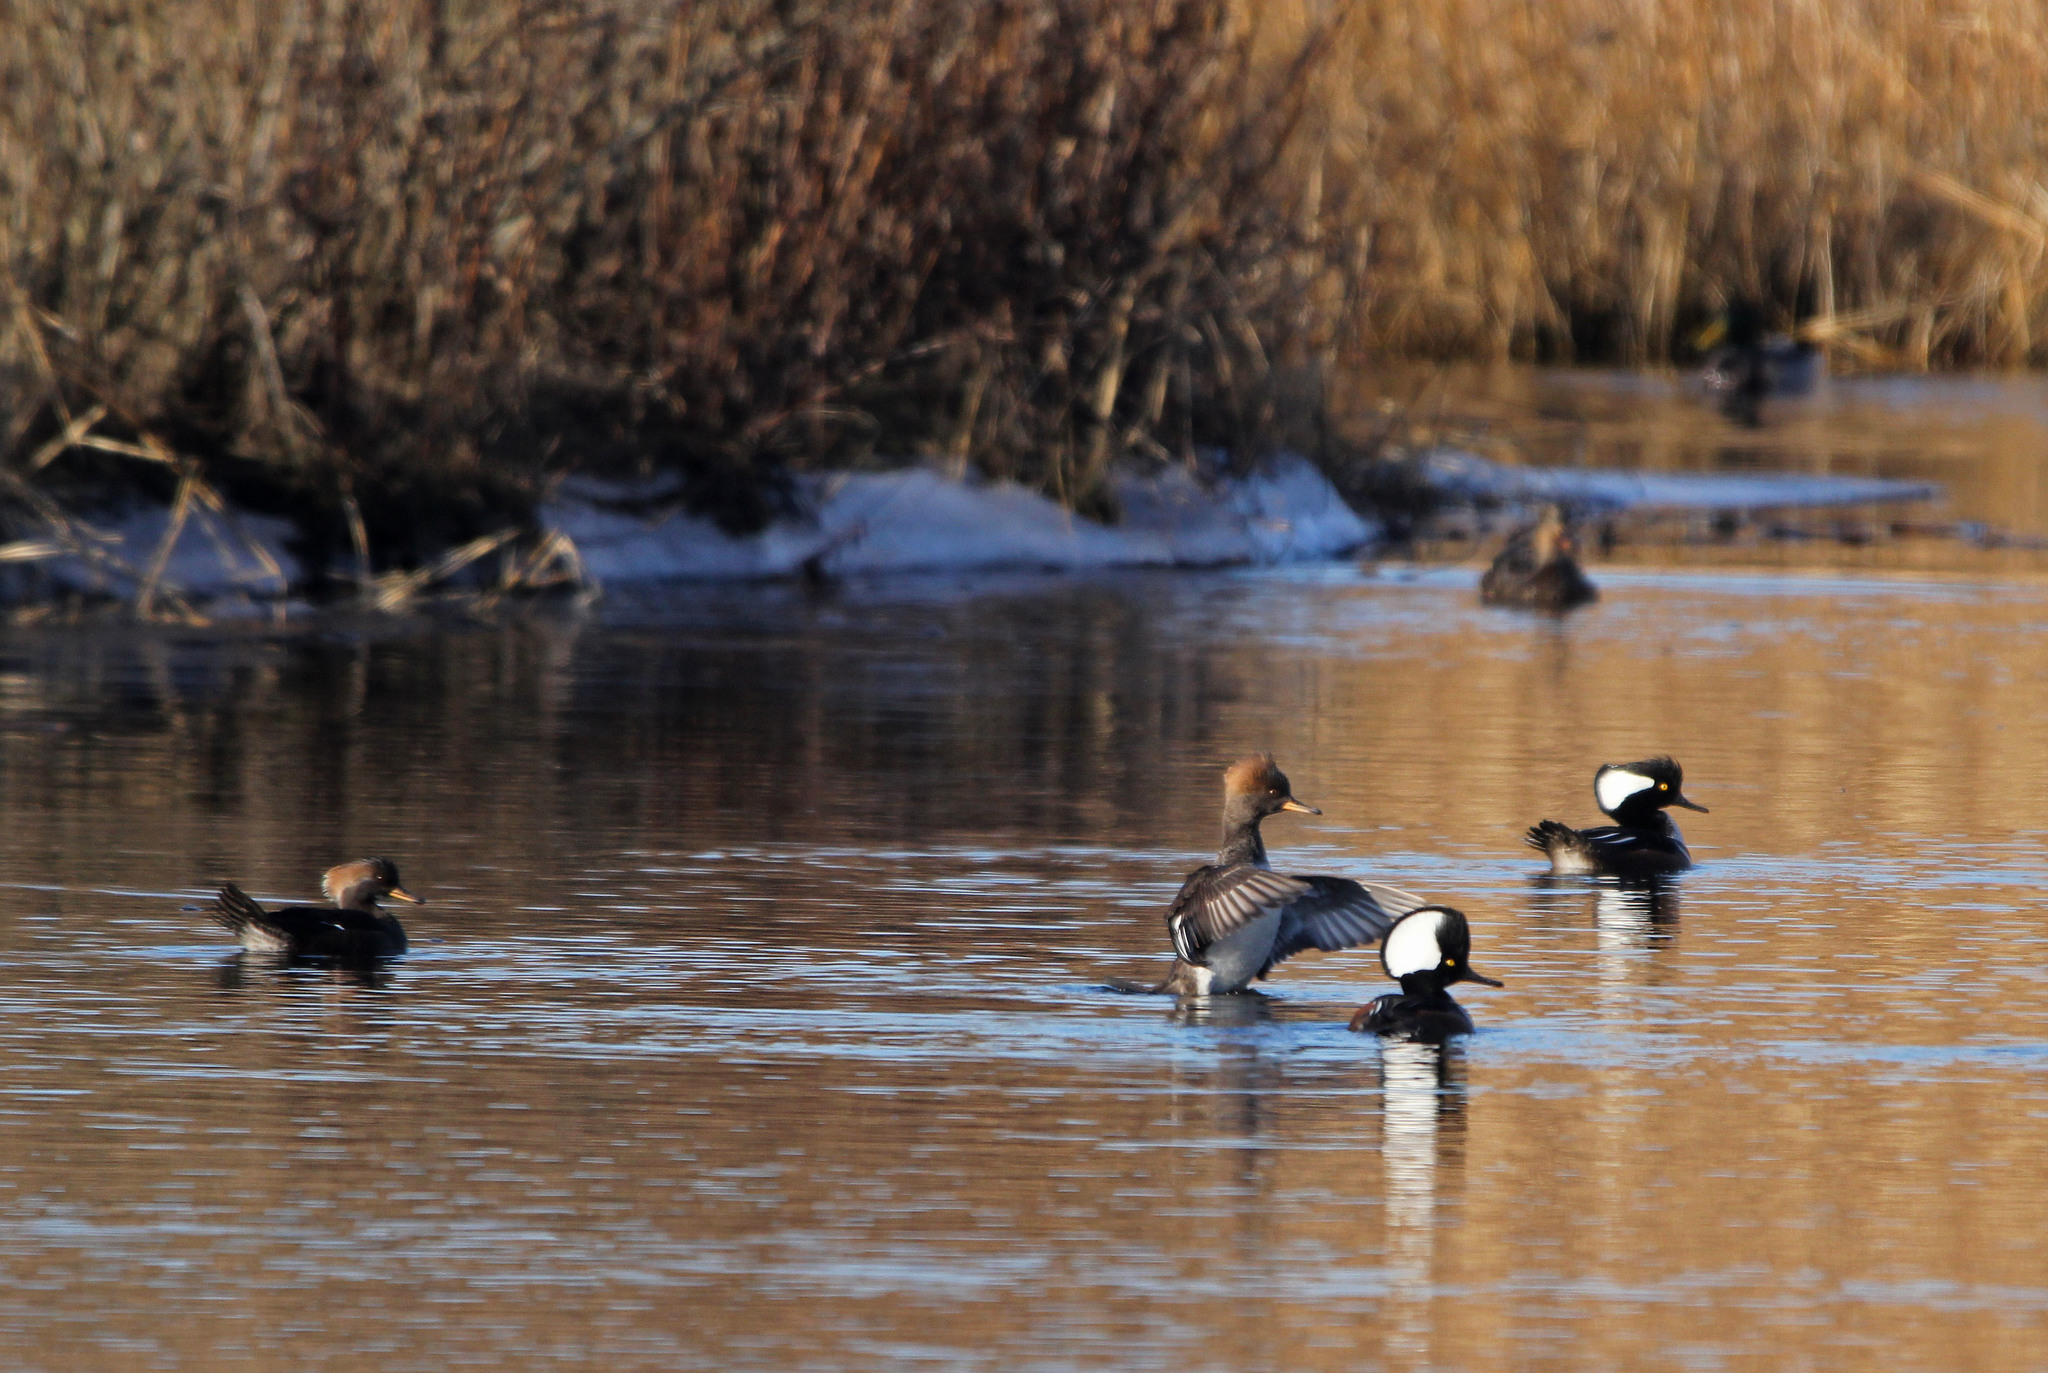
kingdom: Animalia
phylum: Chordata
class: Aves
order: Anseriformes
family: Anatidae
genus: Lophodytes
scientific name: Lophodytes cucullatus
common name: Hooded merganser
